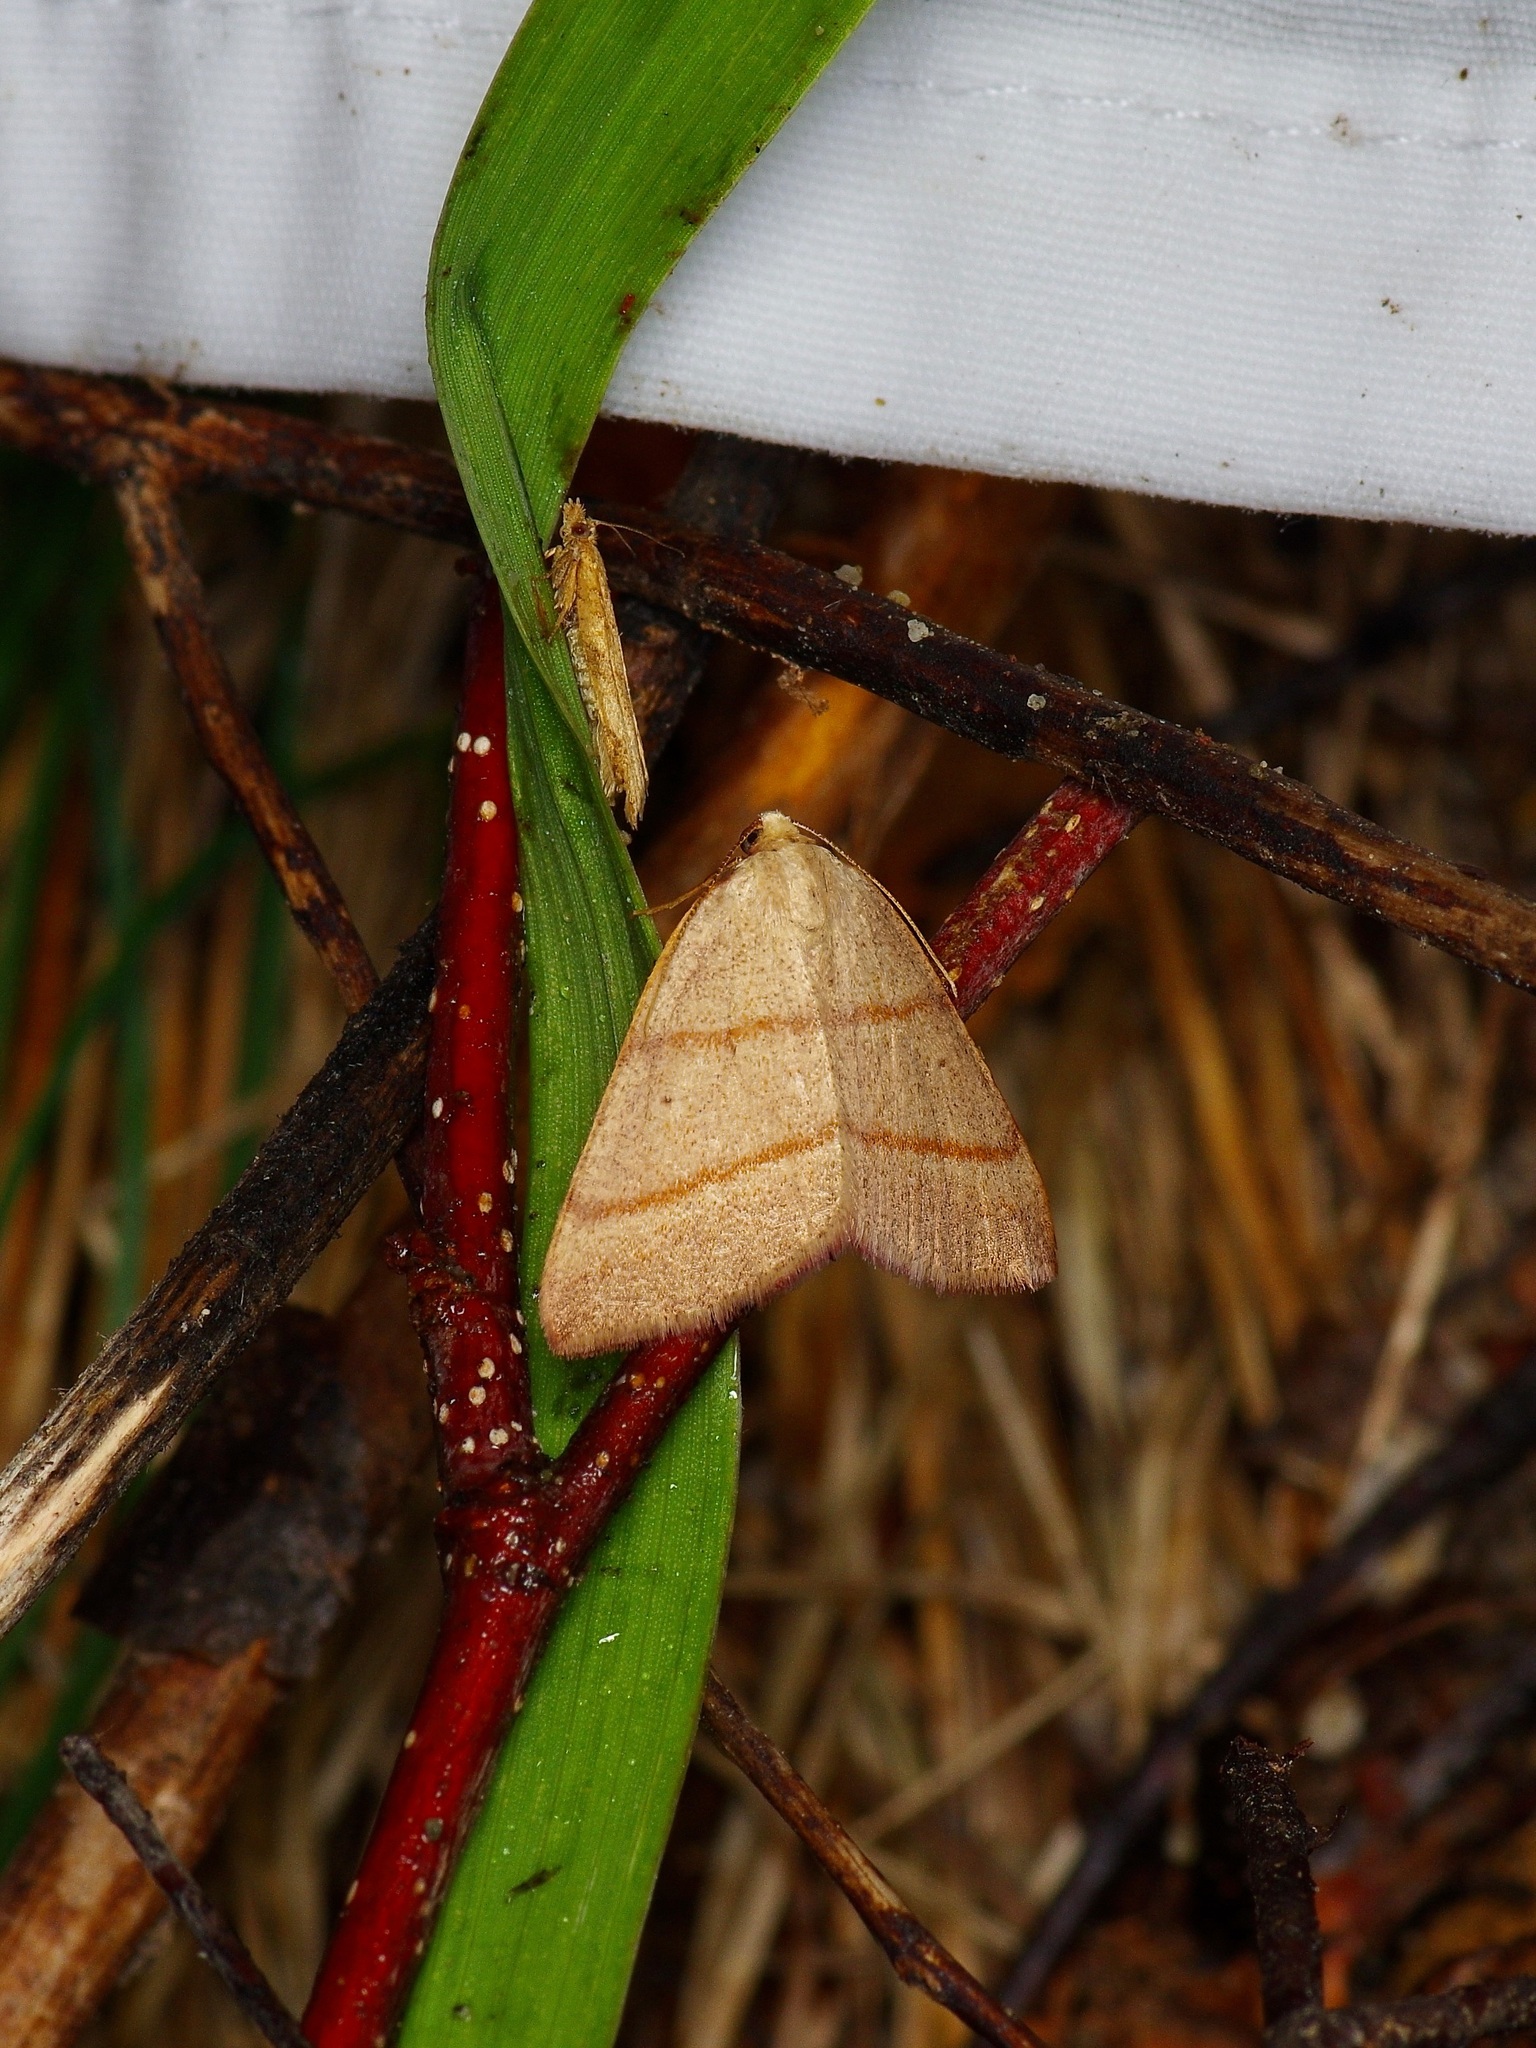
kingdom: Animalia
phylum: Arthropoda
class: Insecta
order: Lepidoptera
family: Geometridae
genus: Drepanulatrix
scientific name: Drepanulatrix bifilata
